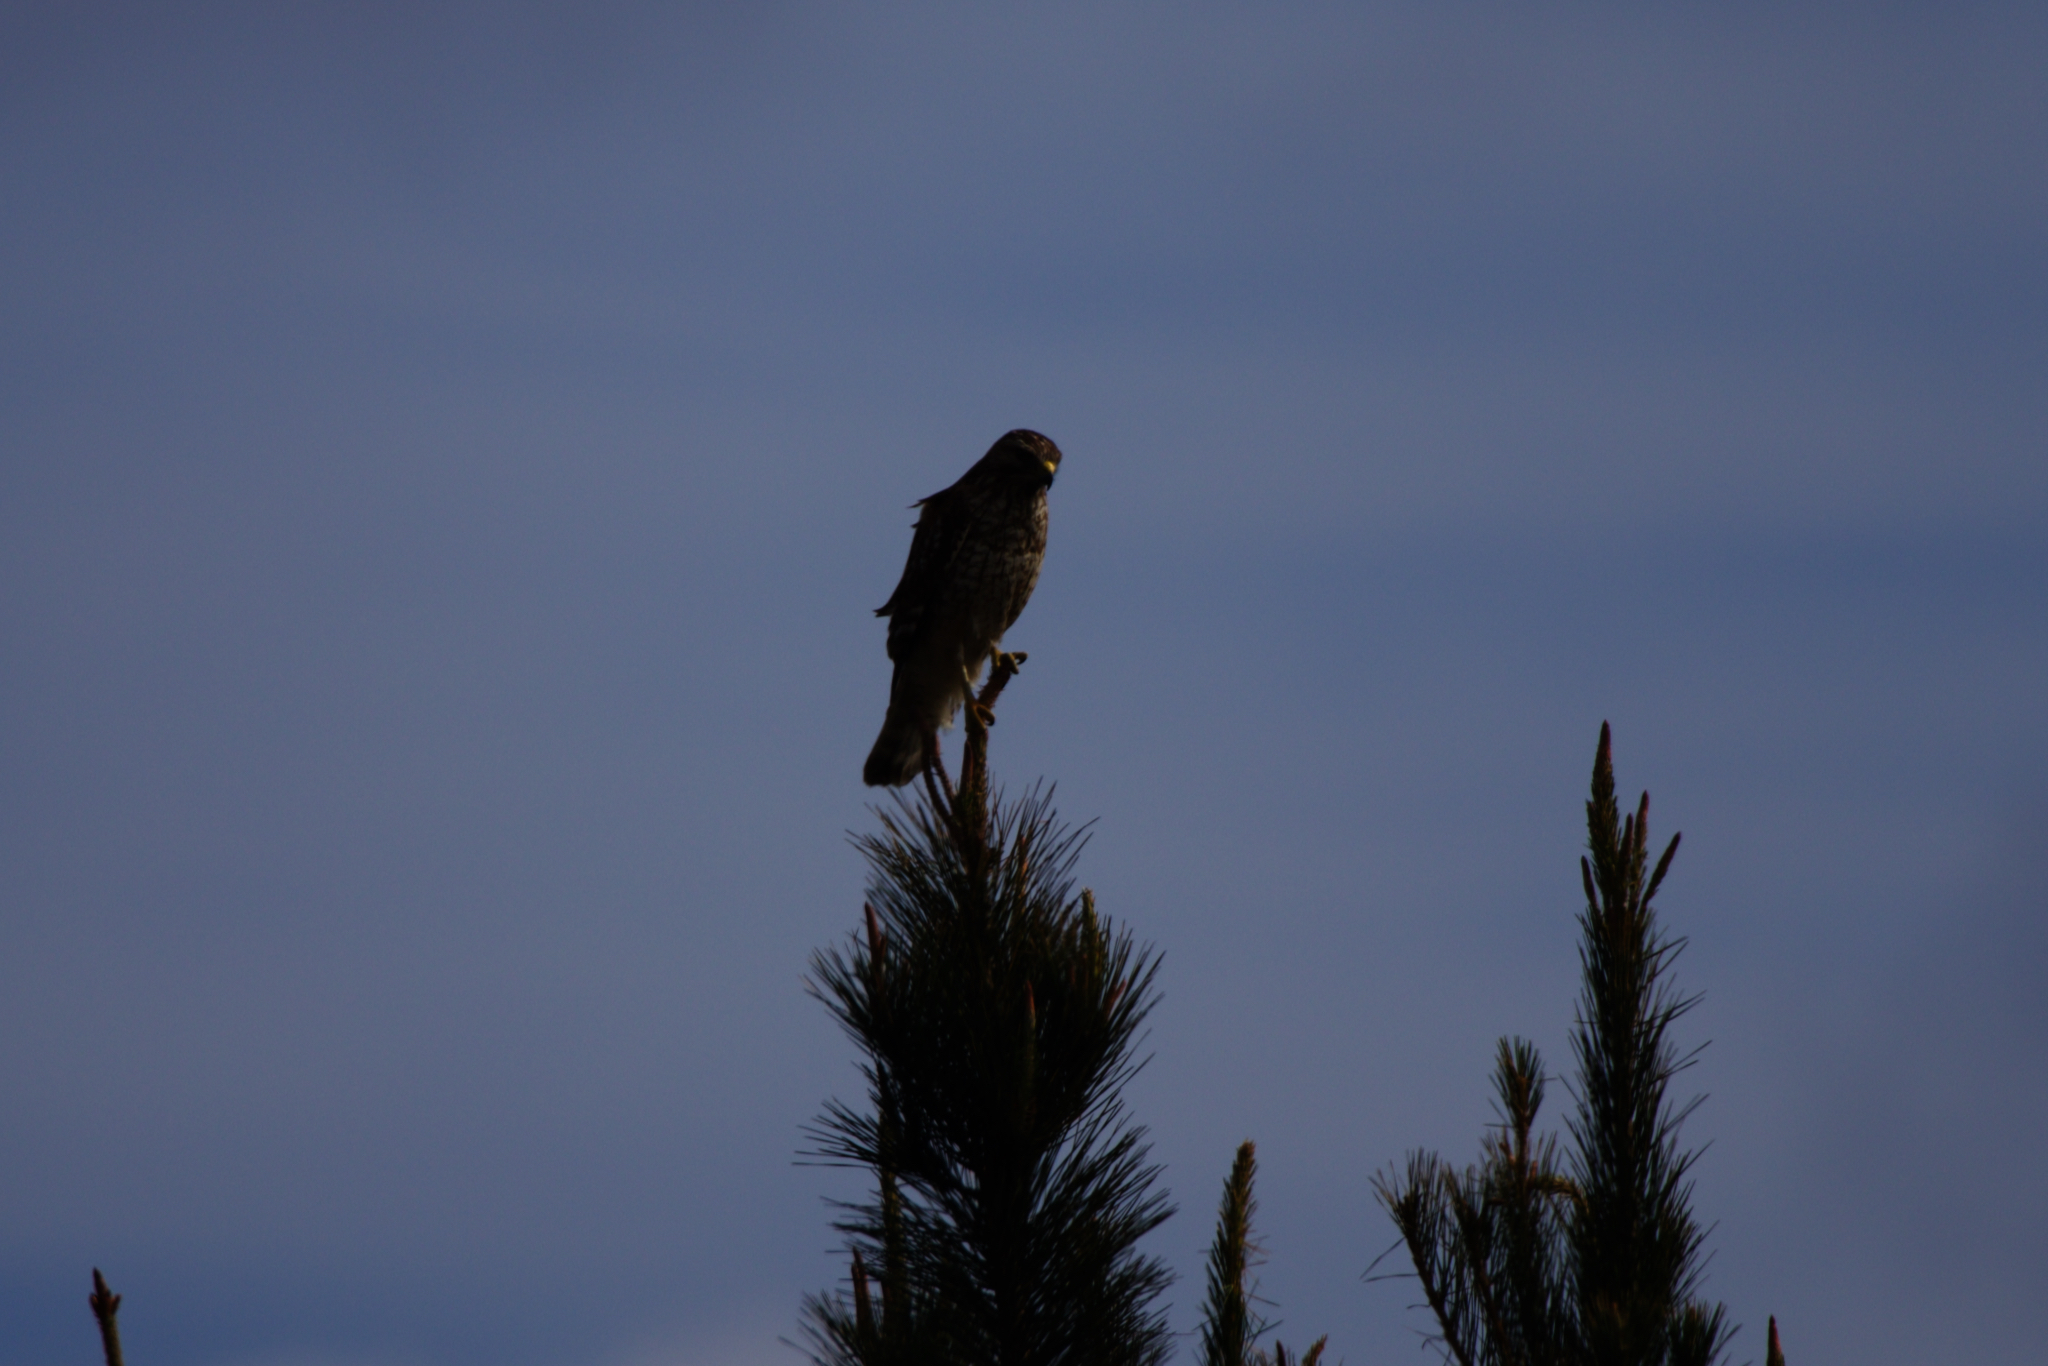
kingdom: Animalia
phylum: Chordata
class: Aves
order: Accipitriformes
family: Accipitridae
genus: Buteo
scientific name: Buteo lineatus
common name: Red-shouldered hawk
